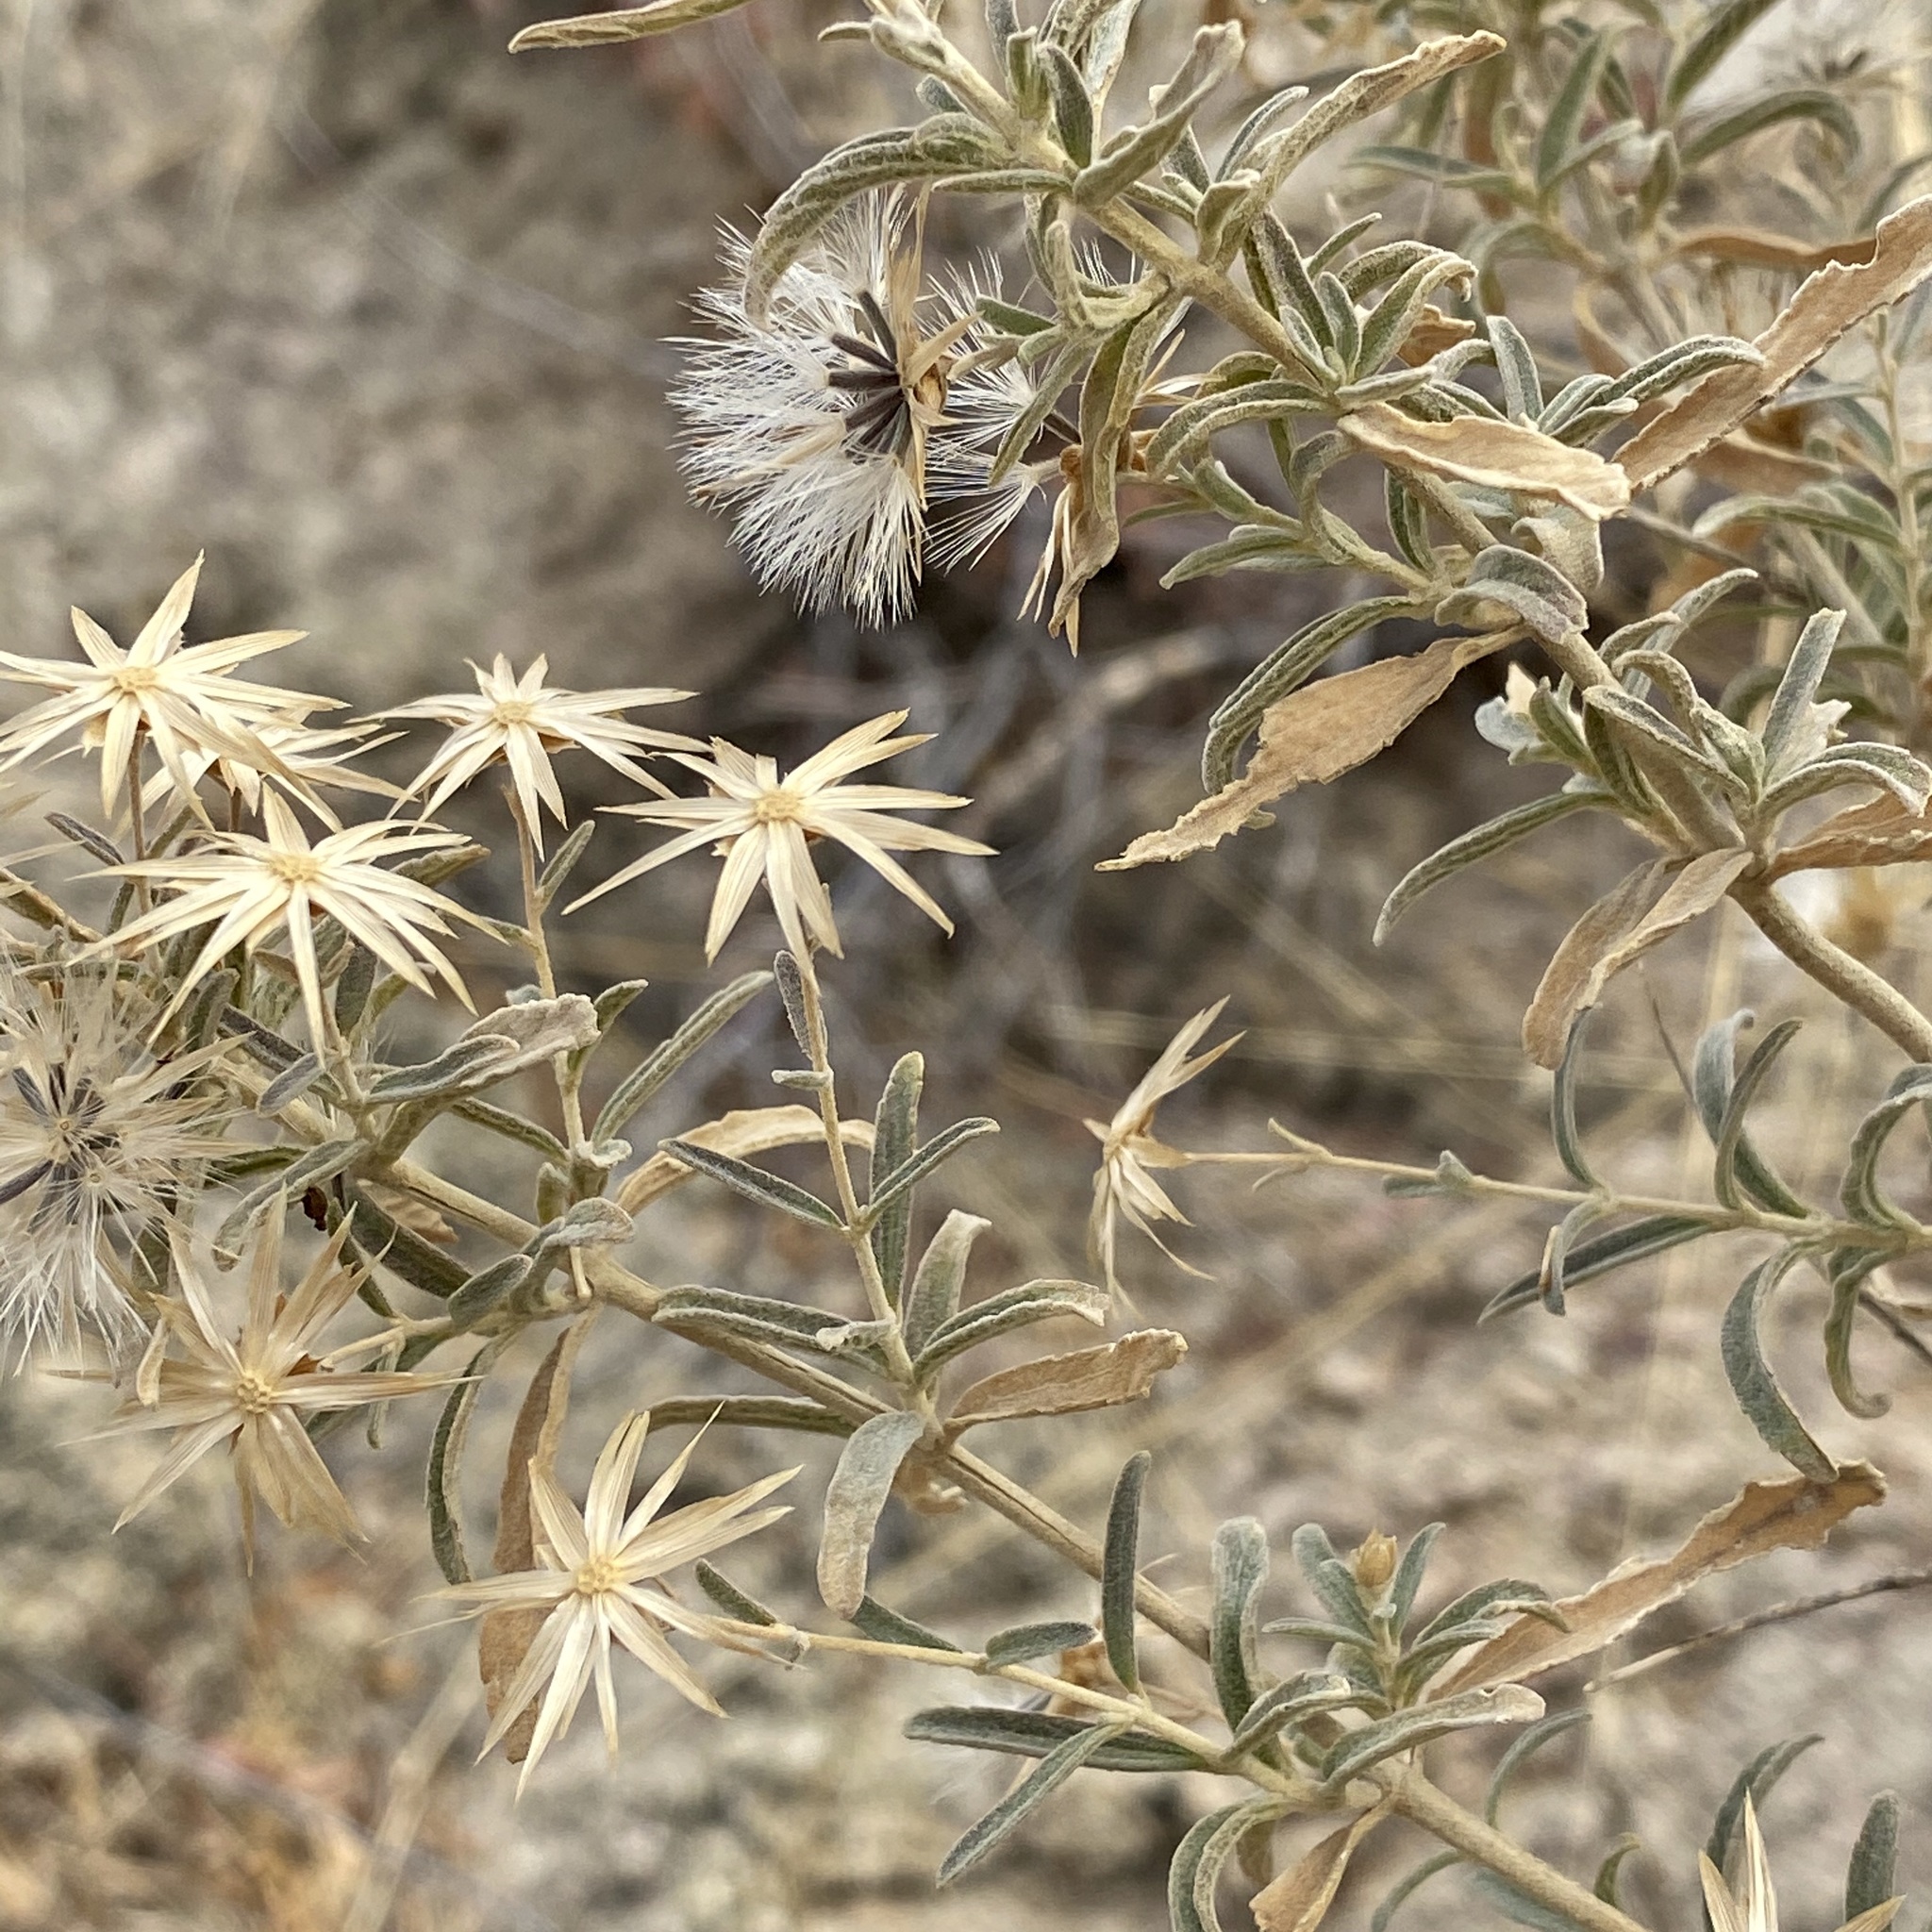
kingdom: Plantae
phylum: Tracheophyta
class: Magnoliopsida
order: Asterales
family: Asteraceae
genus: Brickellia
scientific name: Brickellia venosa
